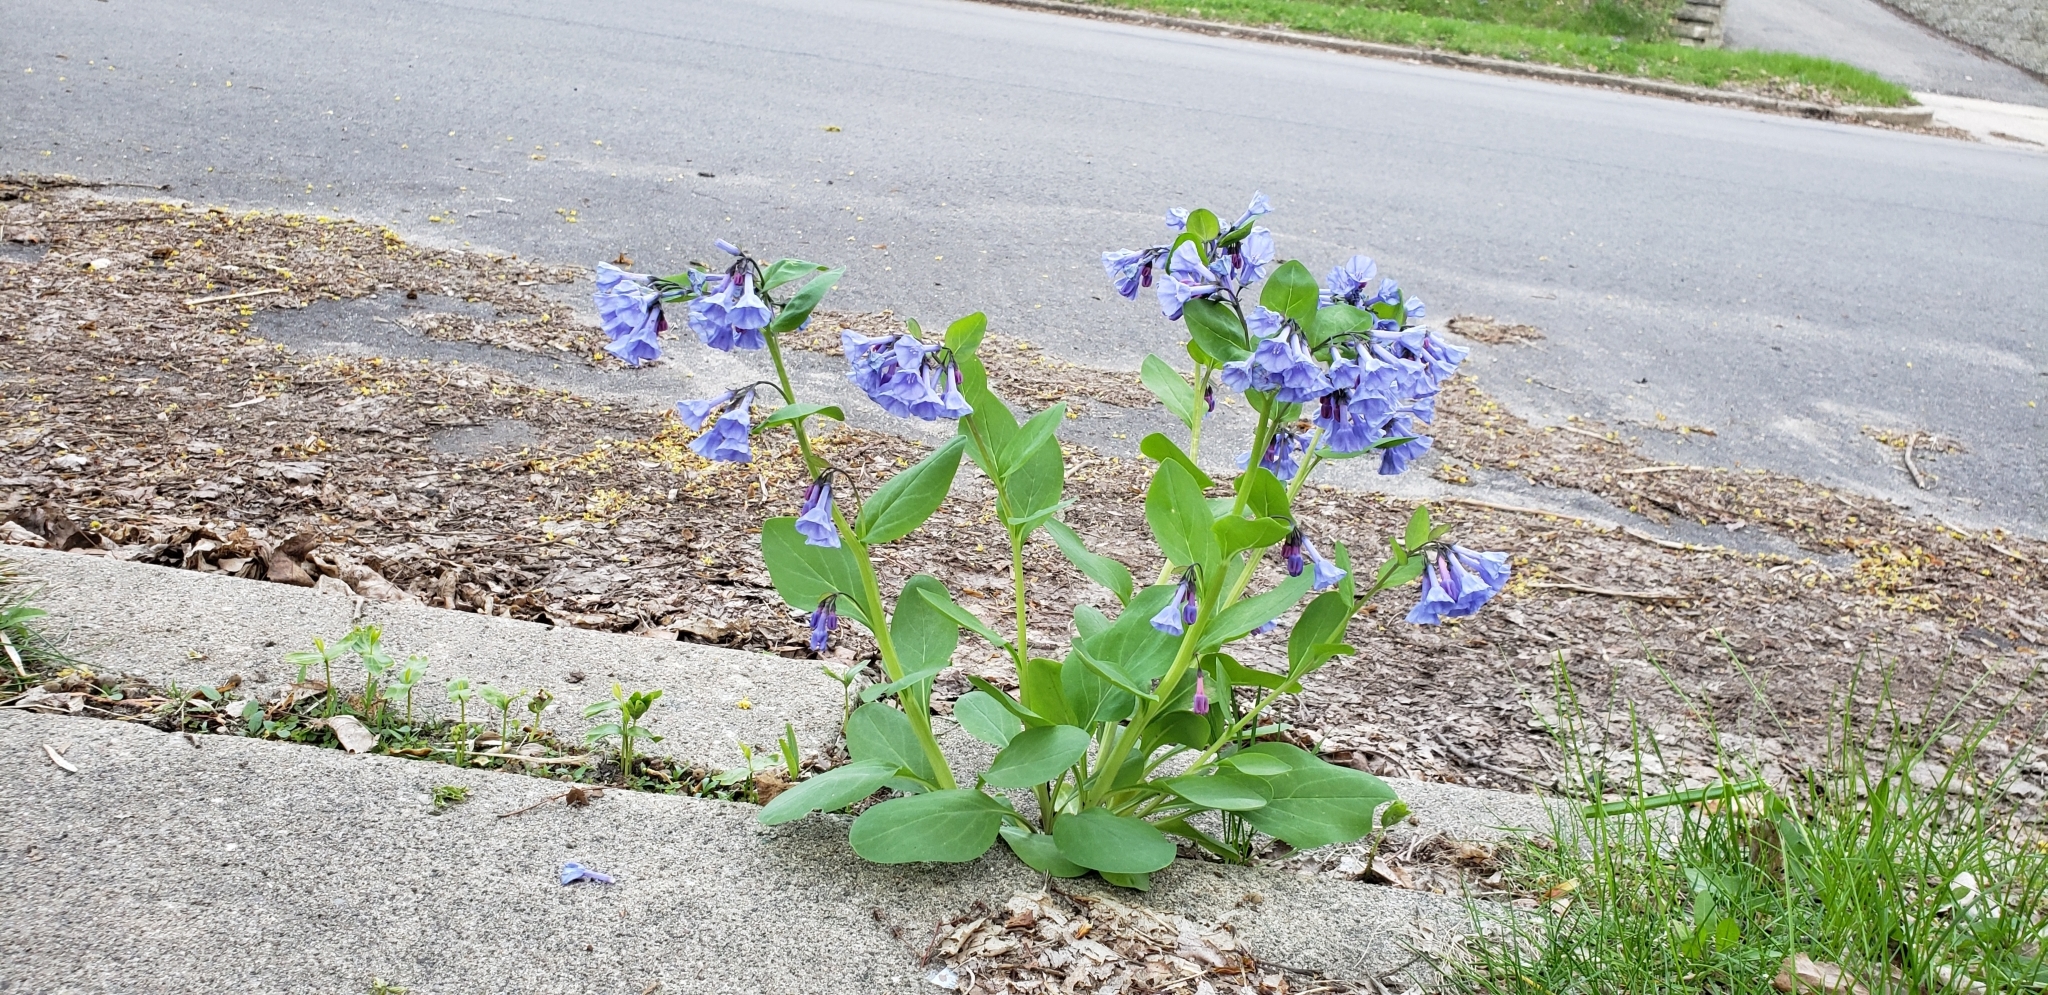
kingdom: Plantae
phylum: Tracheophyta
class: Magnoliopsida
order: Boraginales
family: Boraginaceae
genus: Mertensia
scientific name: Mertensia virginica
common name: Virginia bluebells
